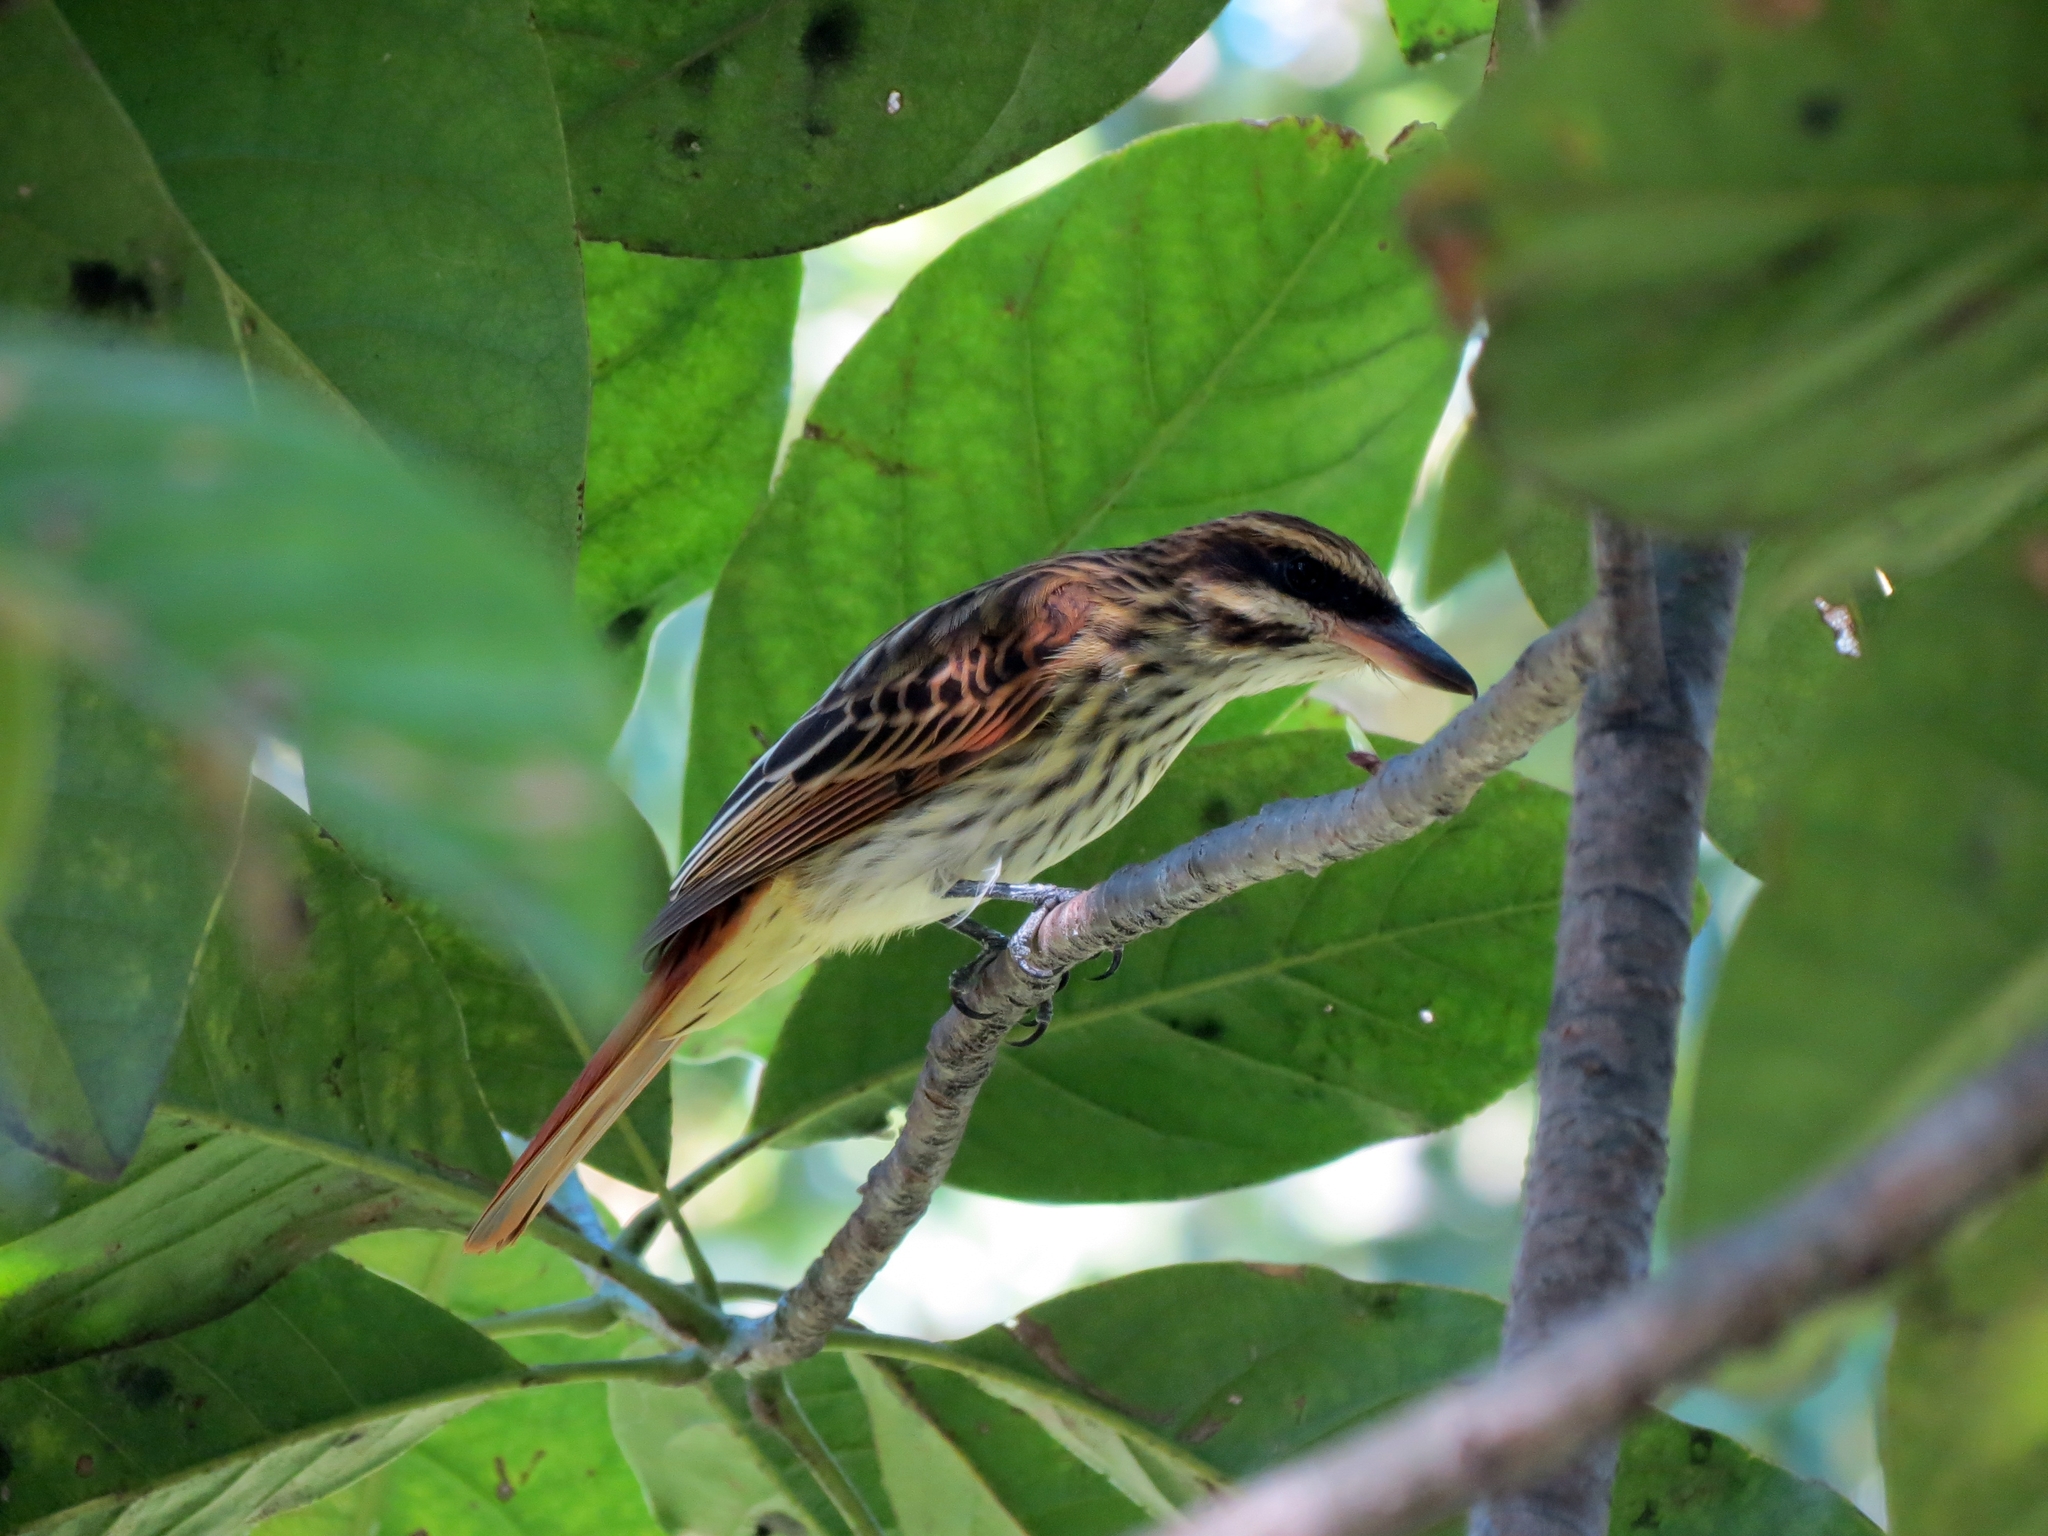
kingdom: Animalia
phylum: Chordata
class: Aves
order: Passeriformes
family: Tyrannidae
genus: Myiodynastes
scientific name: Myiodynastes maculatus
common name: Streaked flycatcher
